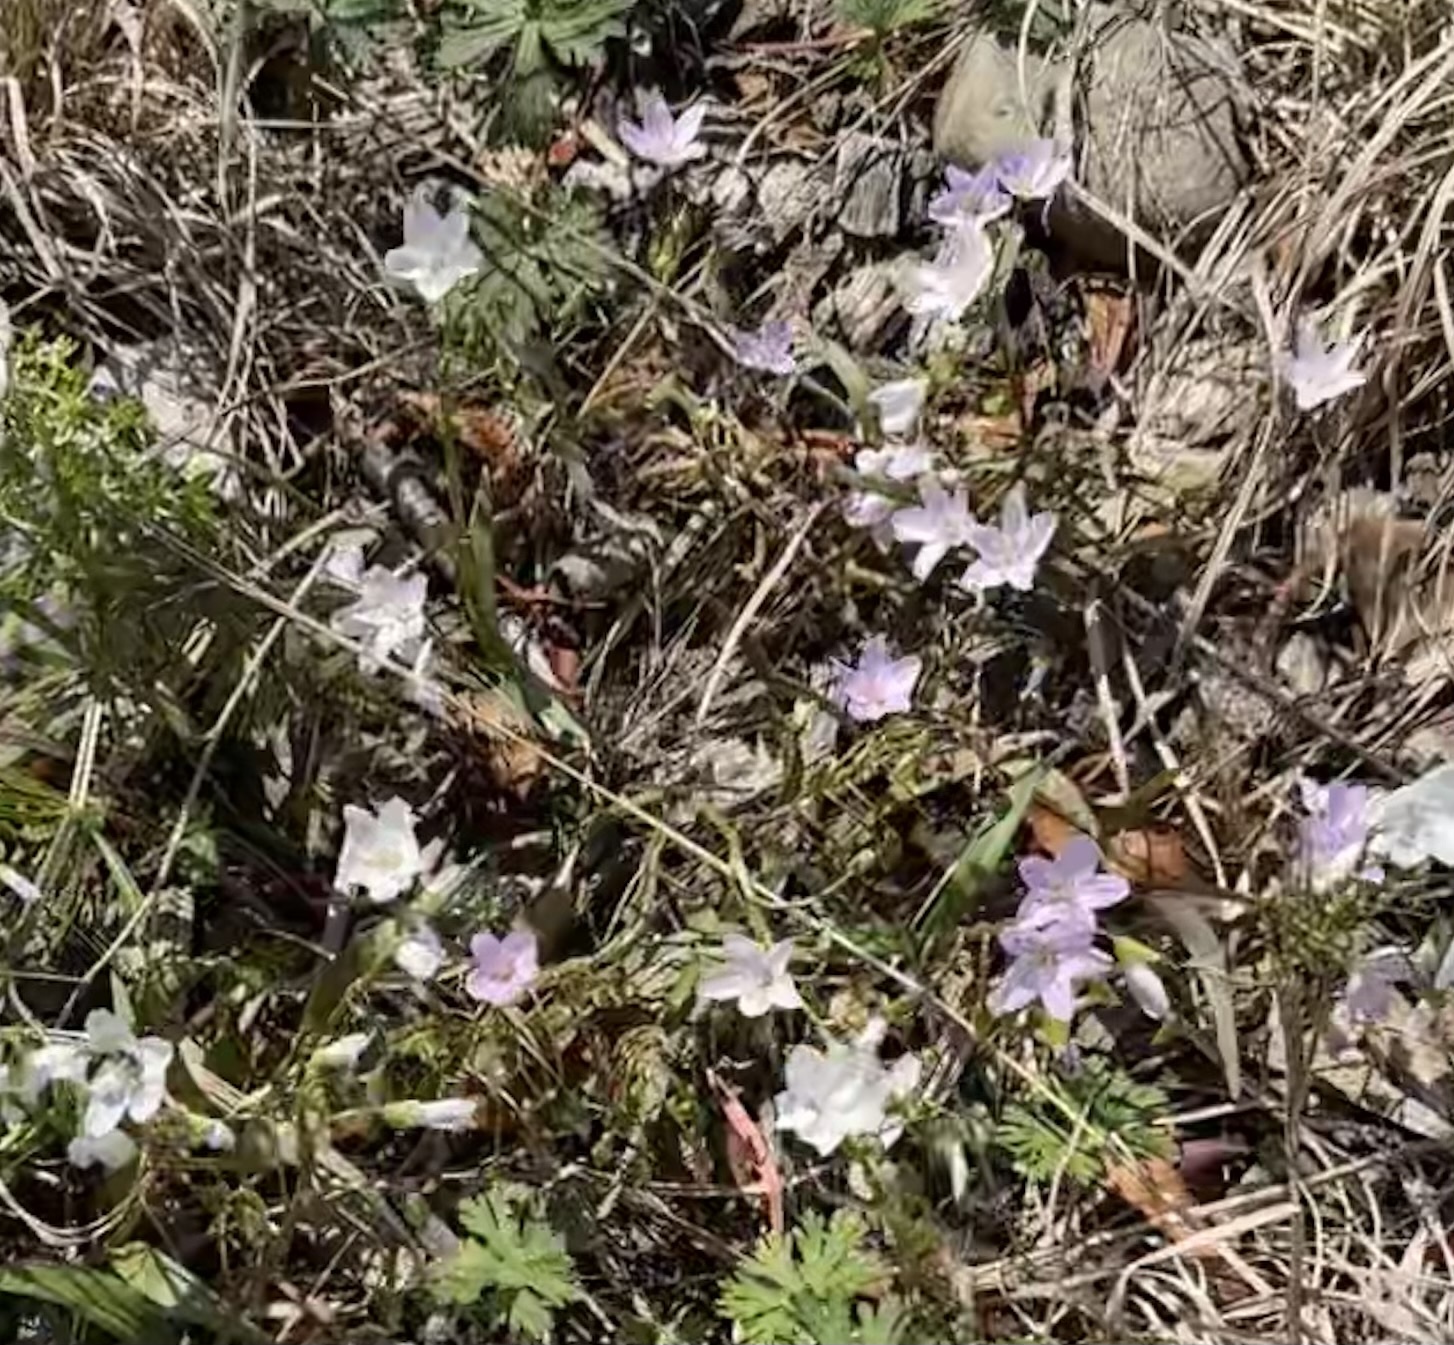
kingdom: Plantae
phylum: Tracheophyta
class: Magnoliopsida
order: Caryophyllales
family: Montiaceae
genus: Claytonia
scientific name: Claytonia virginica
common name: Virginia springbeauty
